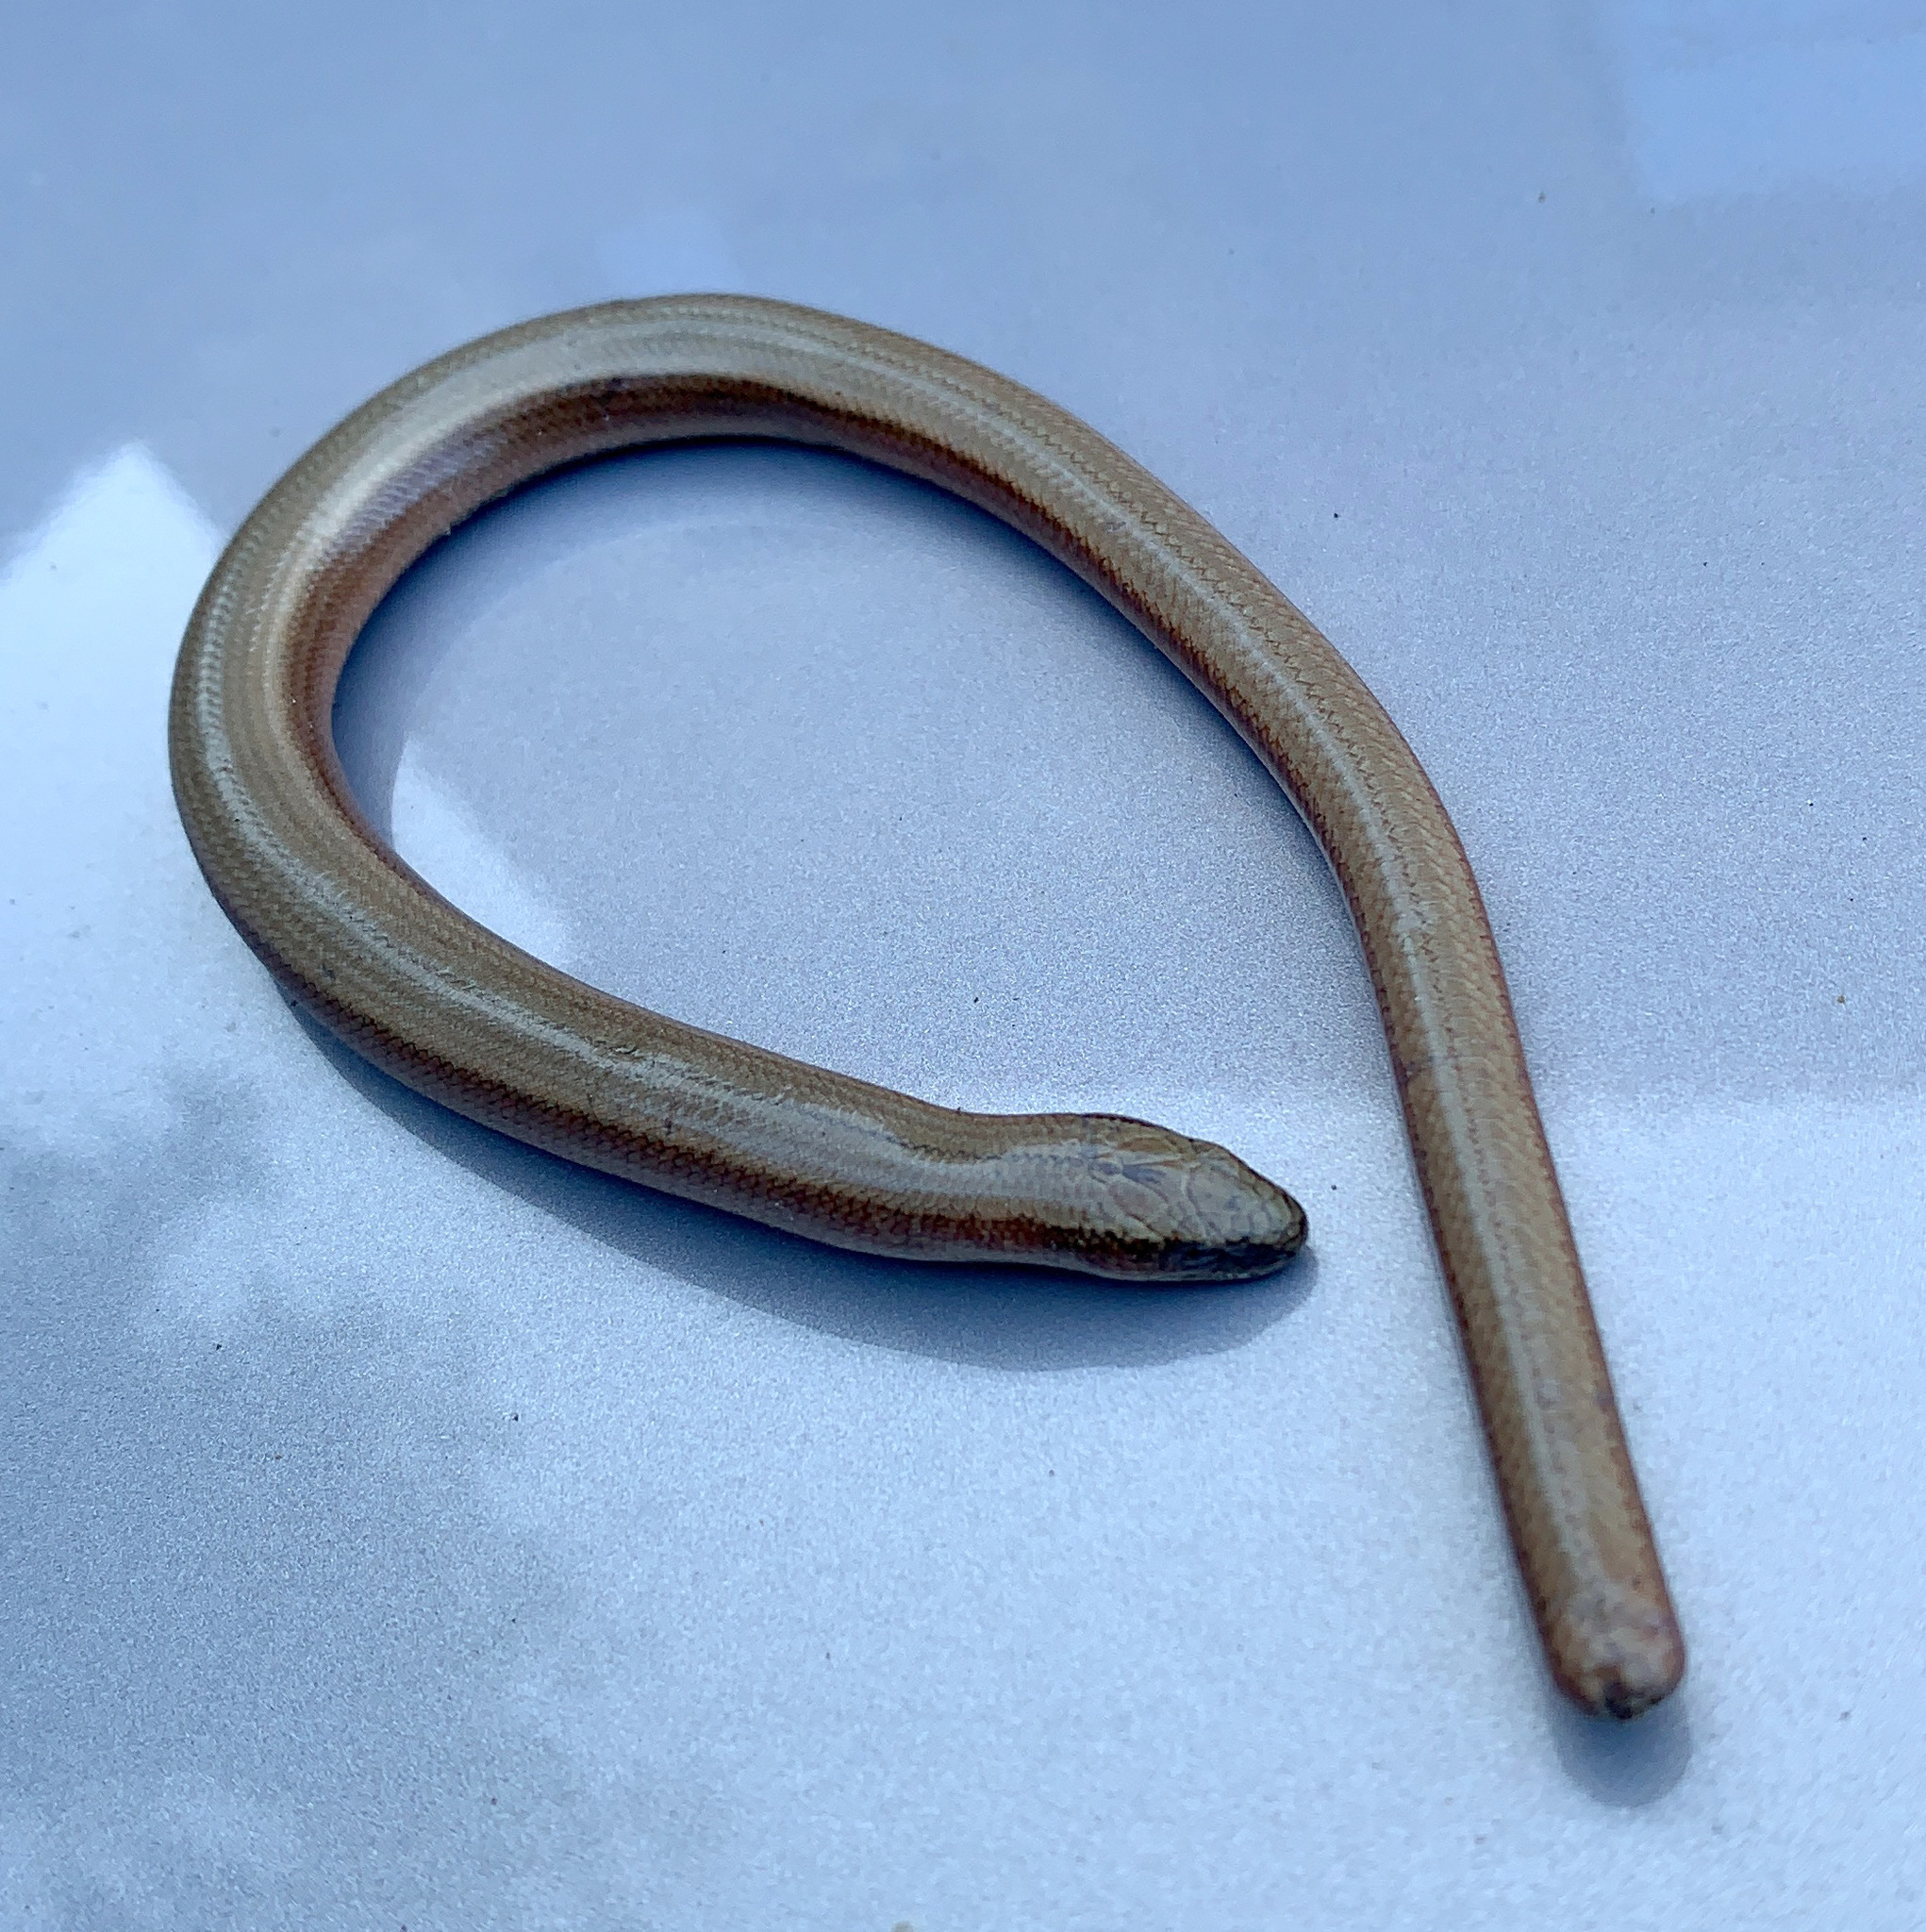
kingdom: Animalia
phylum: Chordata
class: Squamata
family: Anguidae
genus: Anguis
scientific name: Anguis fragilis
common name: Slow worm
